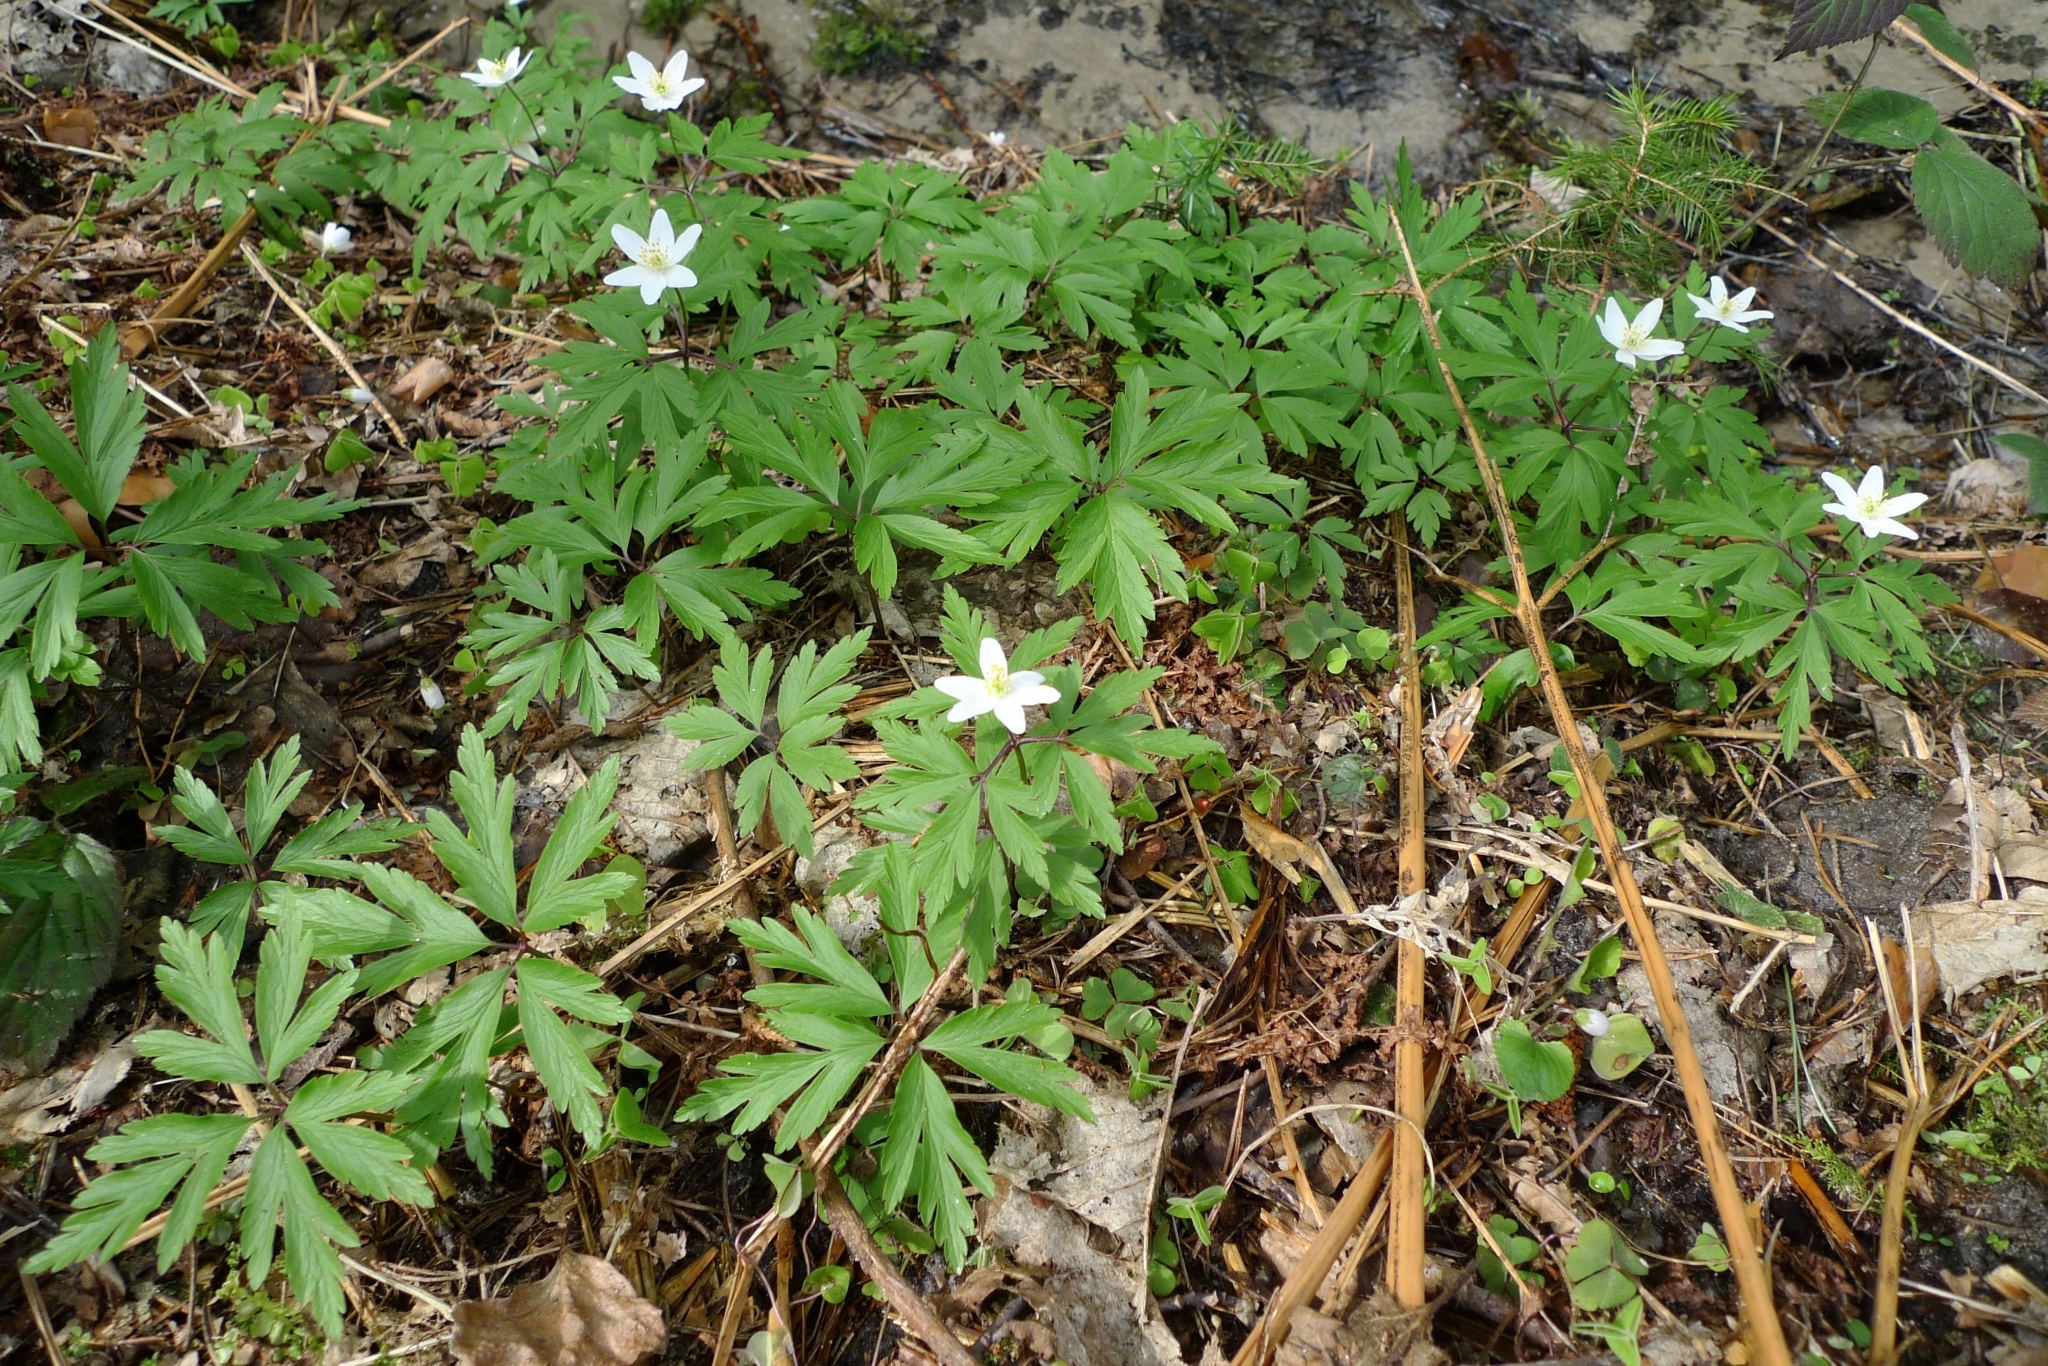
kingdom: Plantae
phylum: Tracheophyta
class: Magnoliopsida
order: Ranunculales
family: Ranunculaceae
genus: Anemone
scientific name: Anemone nemorosa
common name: Wood anemone
